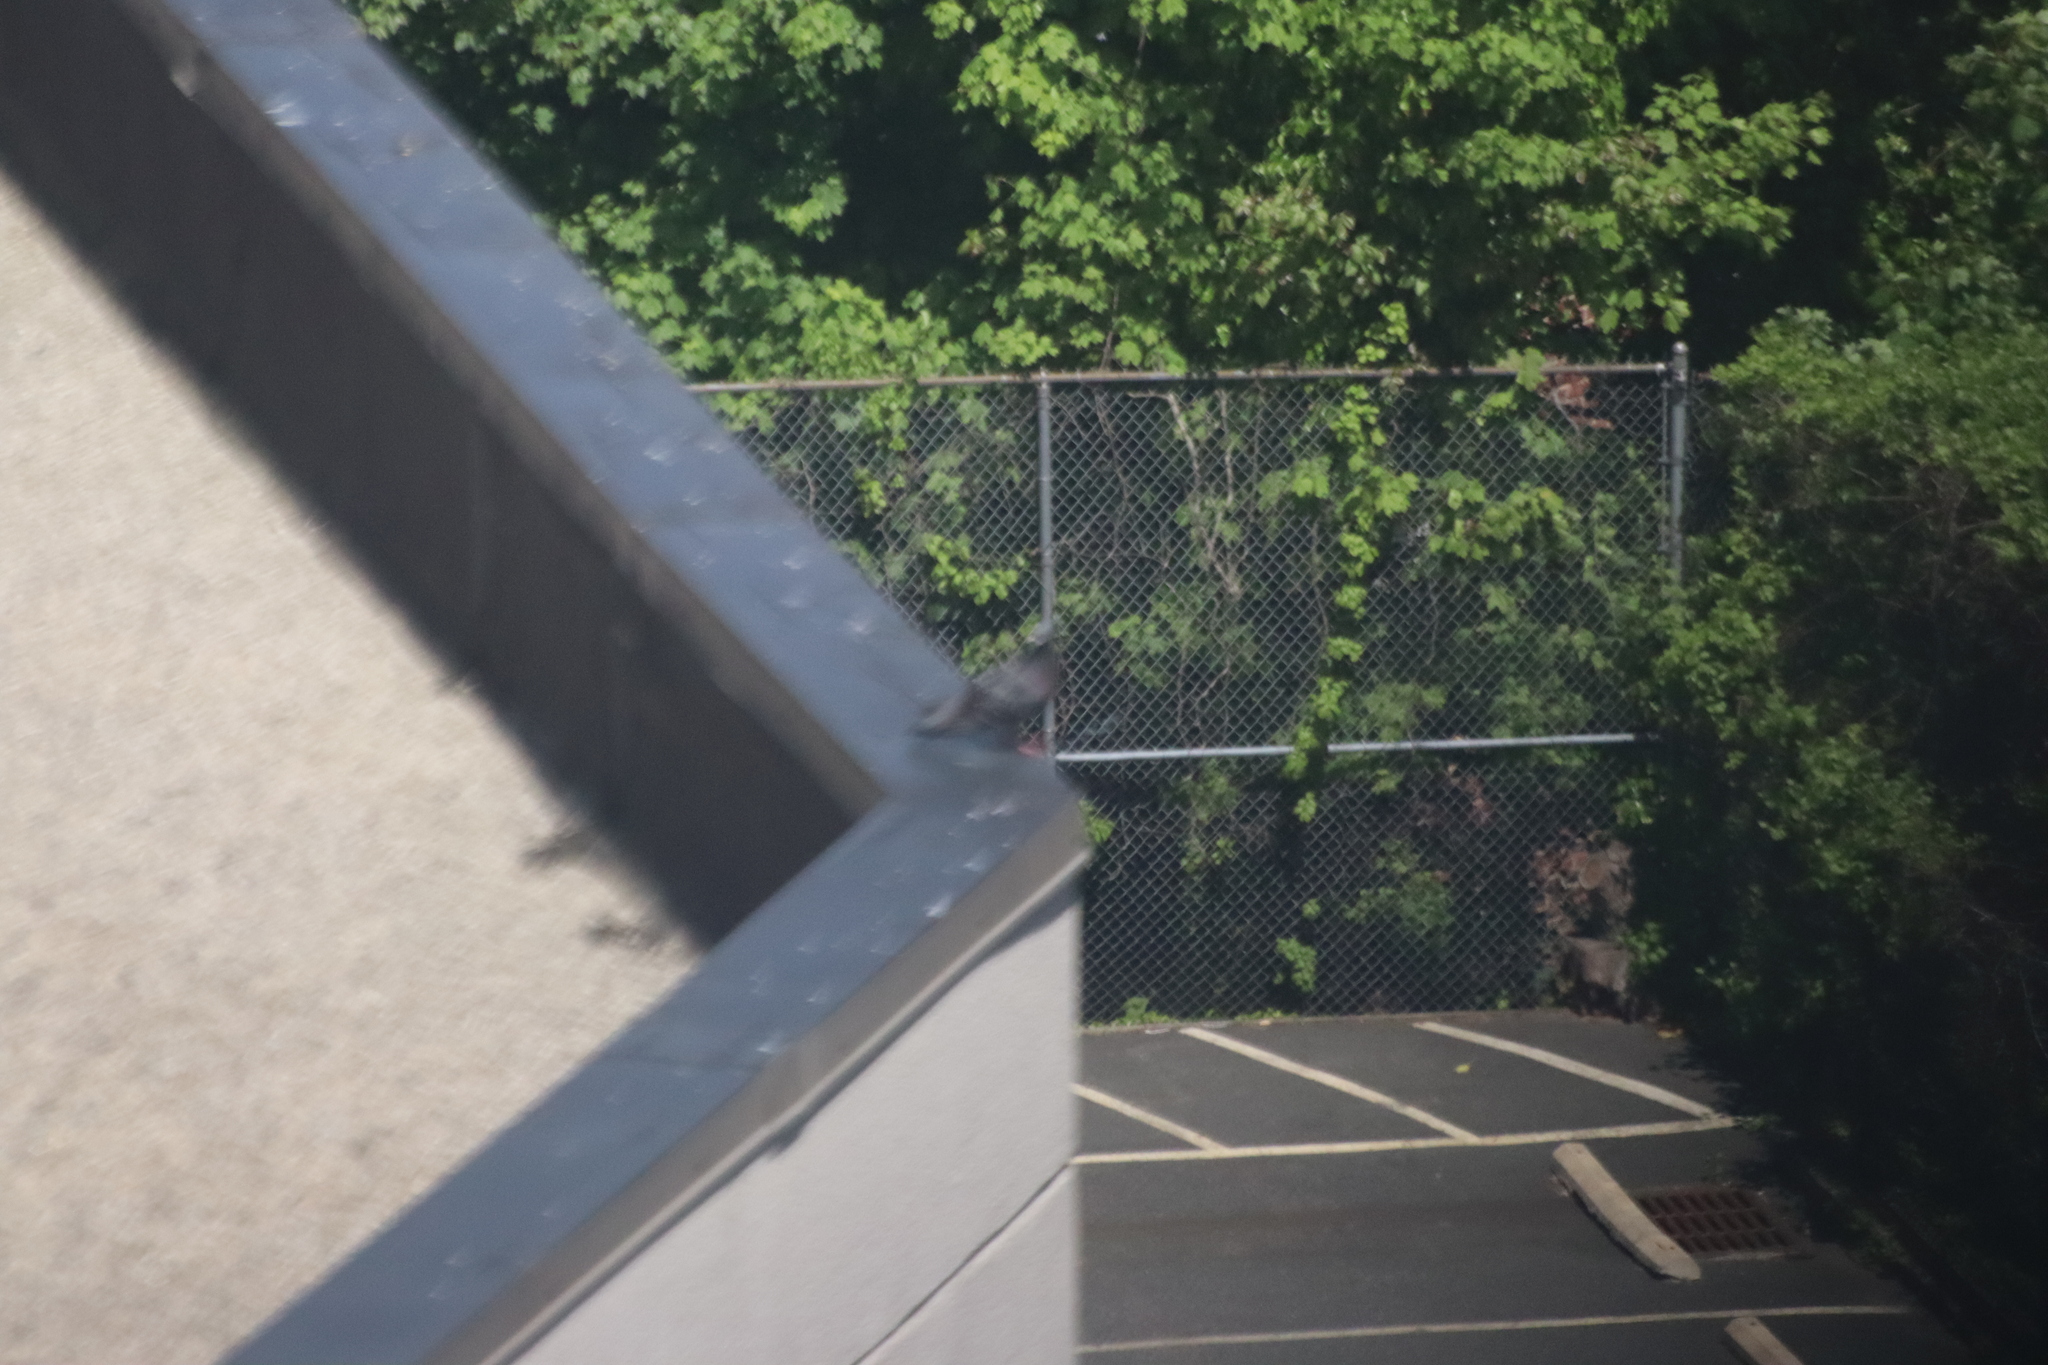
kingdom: Animalia
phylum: Chordata
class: Aves
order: Columbiformes
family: Columbidae
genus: Columba
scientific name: Columba livia
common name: Rock pigeon
